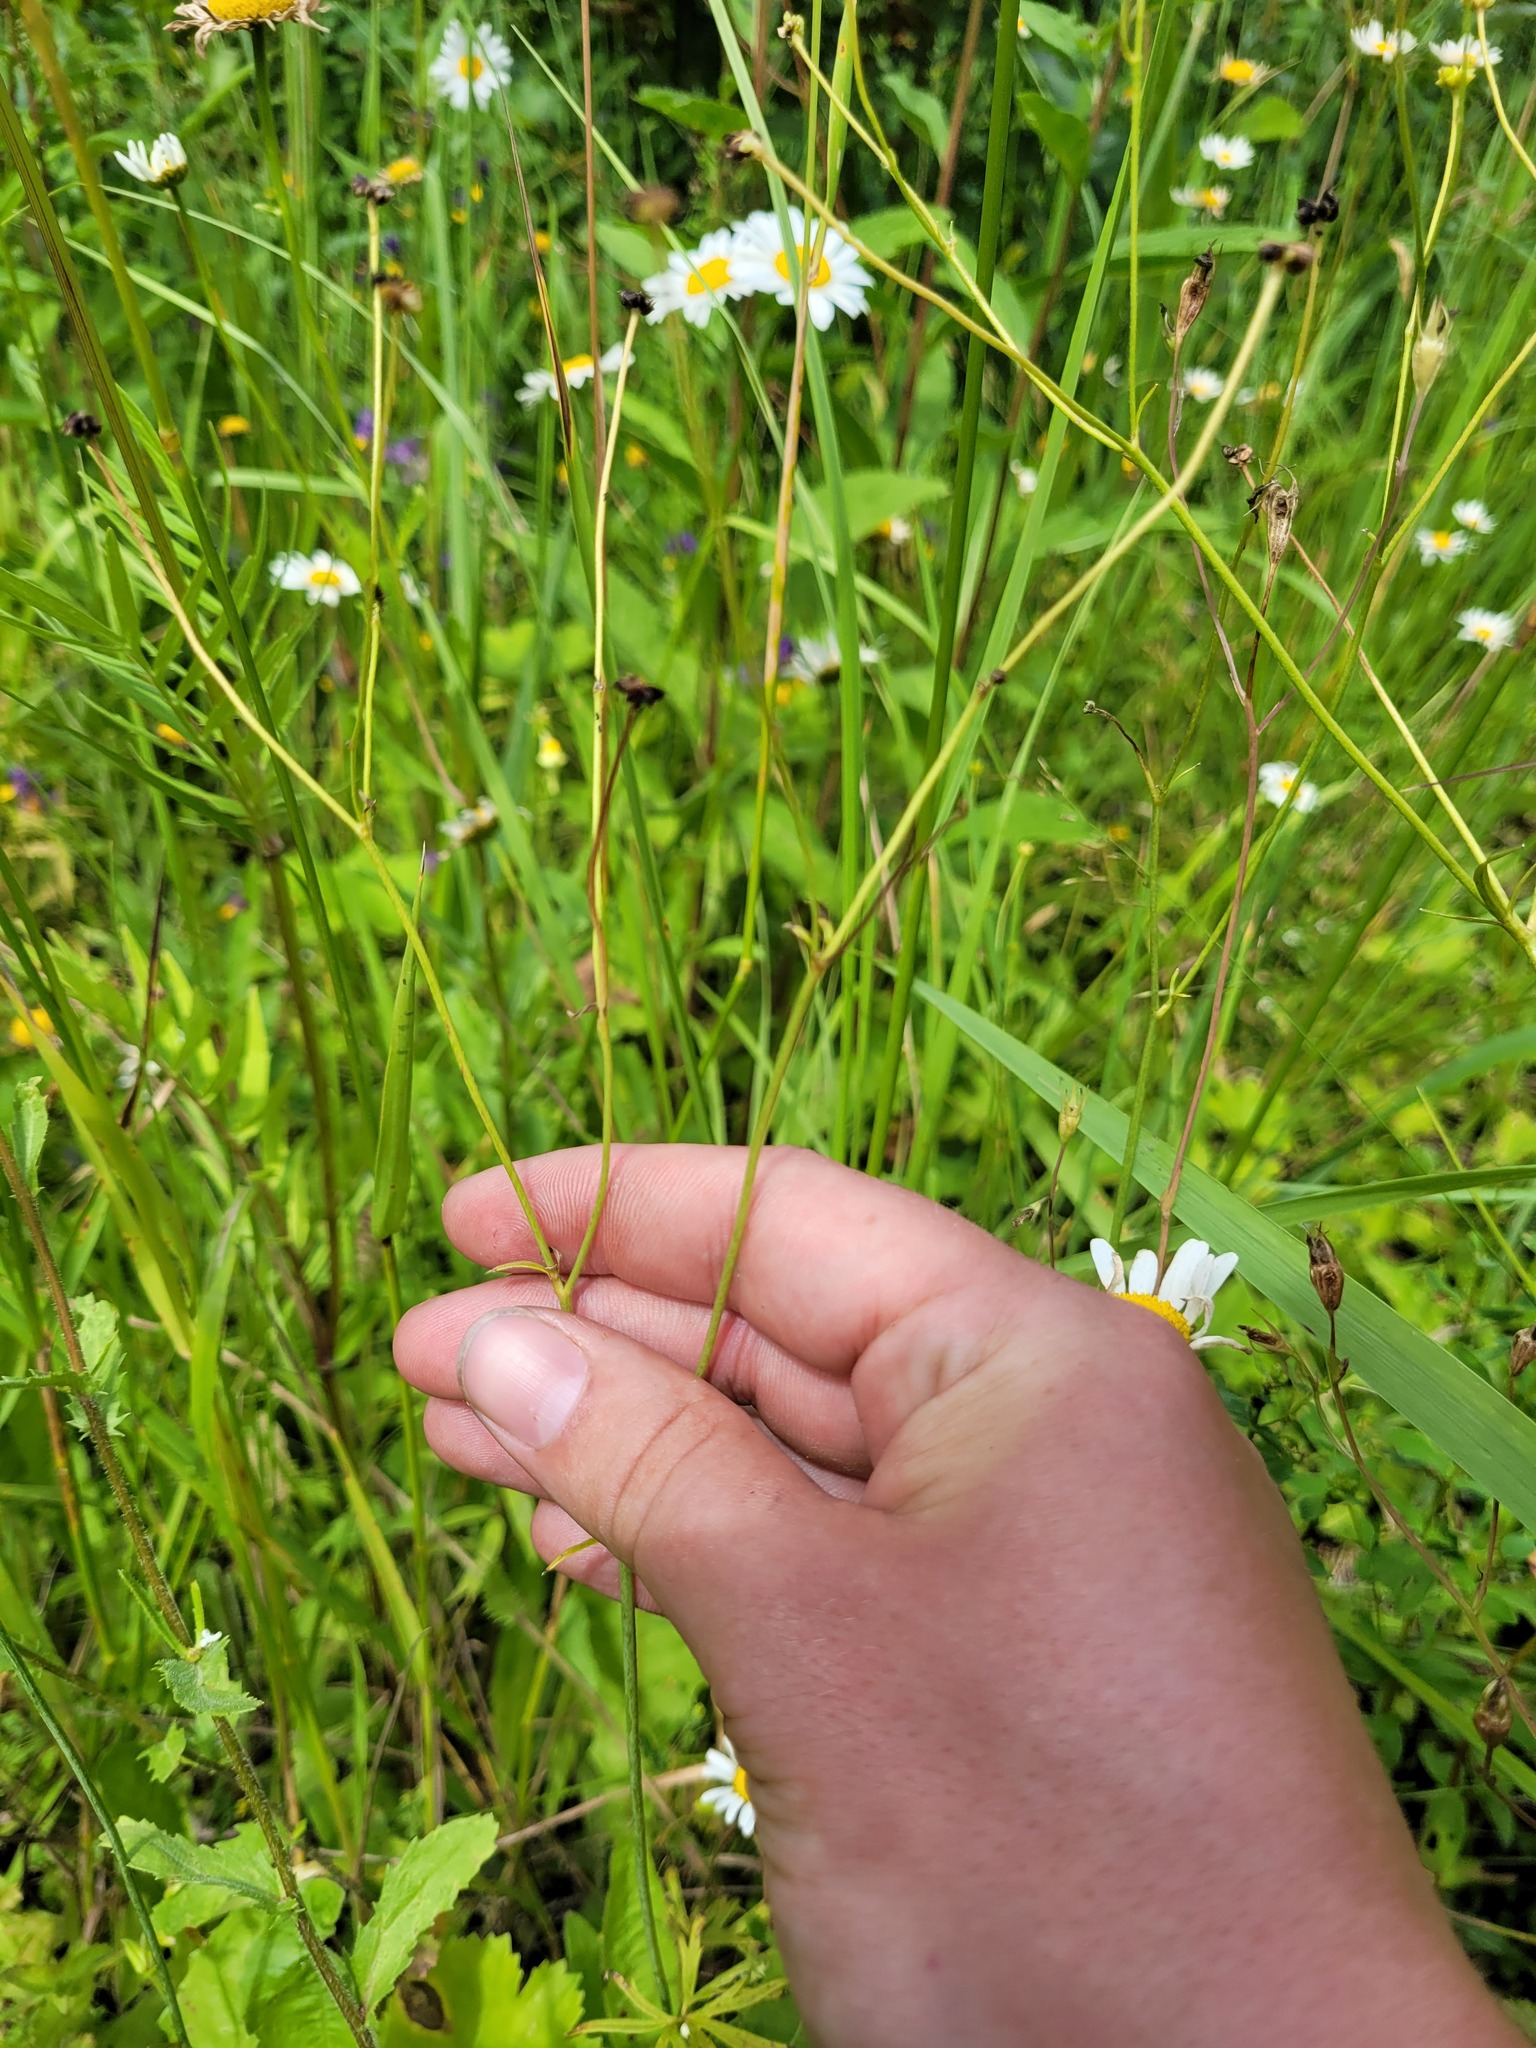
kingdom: Plantae
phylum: Tracheophyta
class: Magnoliopsida
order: Ranunculales
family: Ranunculaceae
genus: Ranunculus
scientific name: Ranunculus acris
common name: Meadow buttercup
